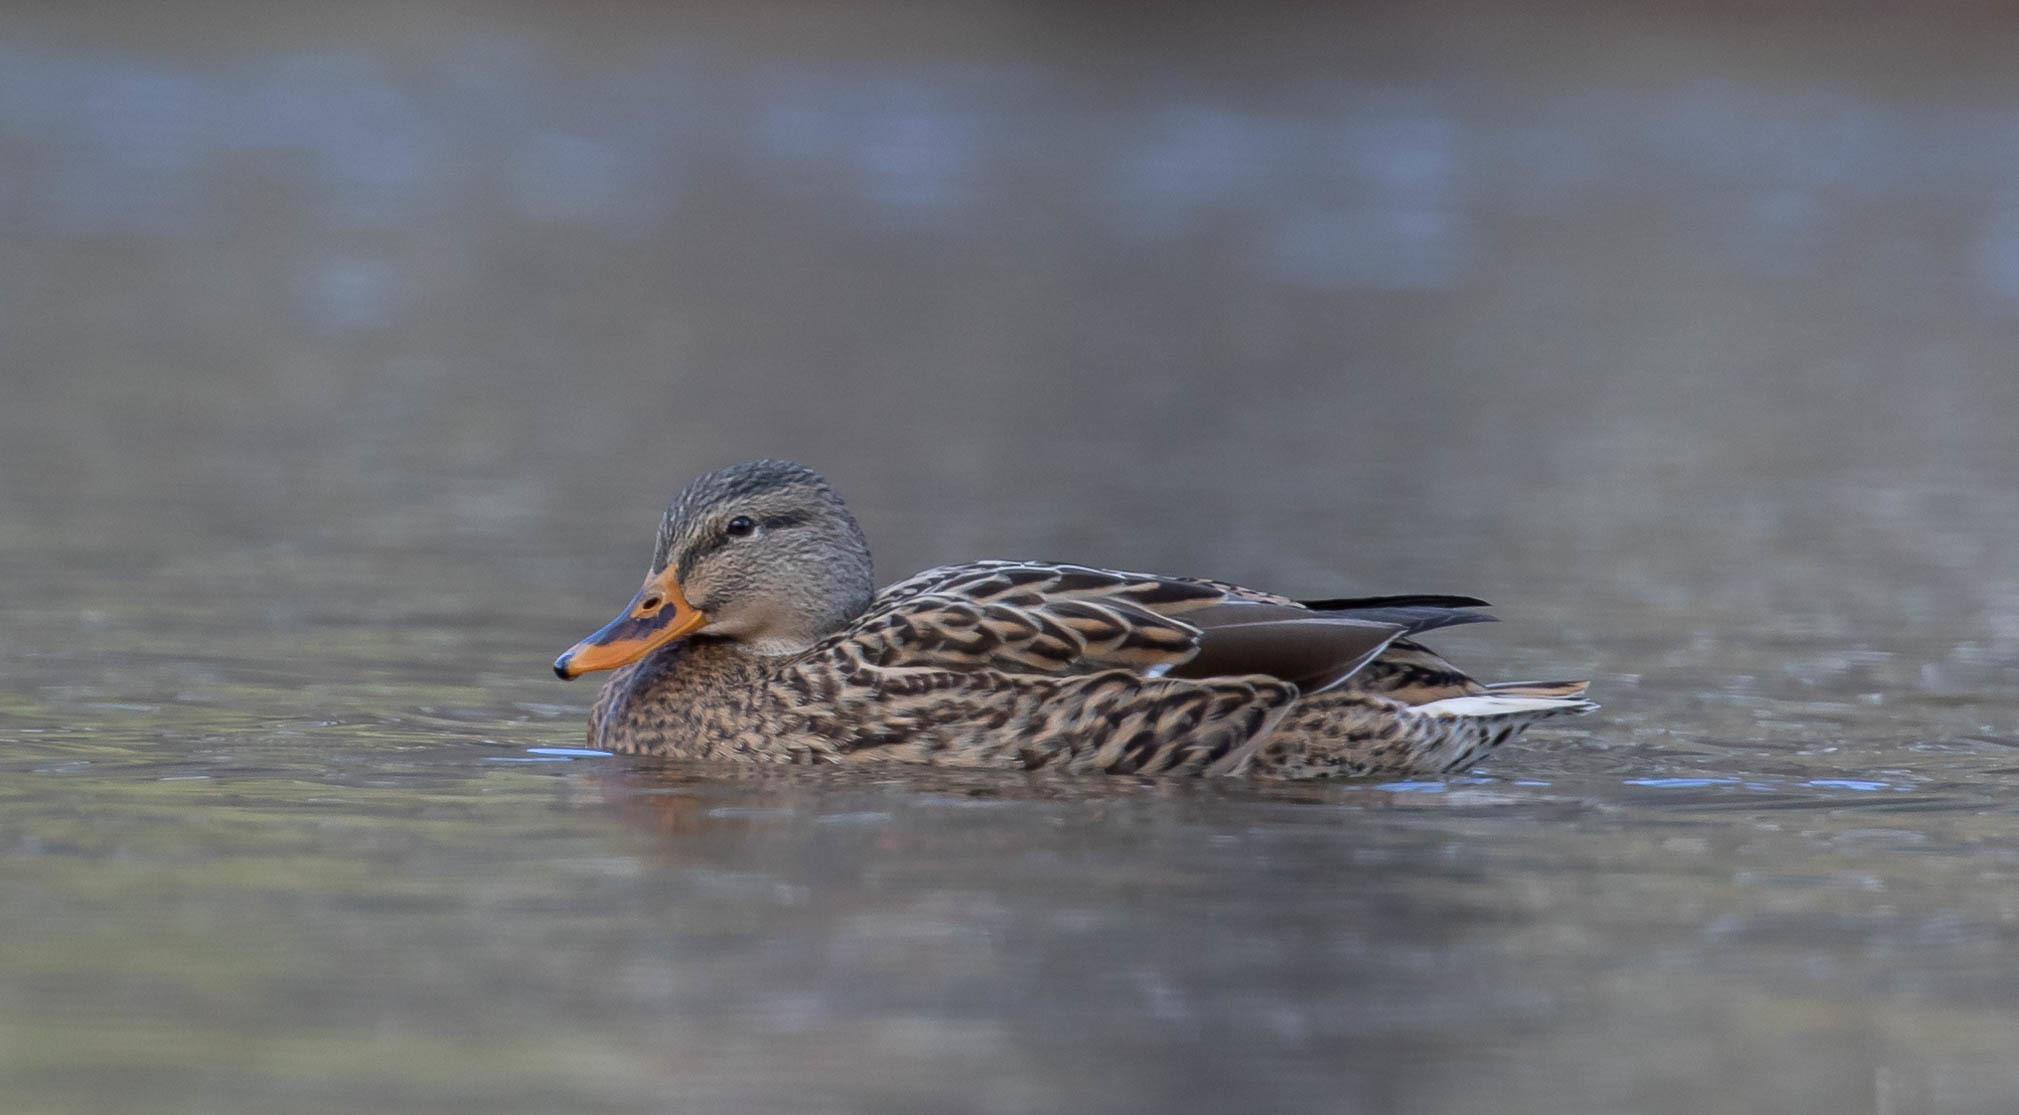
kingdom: Animalia
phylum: Chordata
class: Aves
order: Anseriformes
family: Anatidae
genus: Anas
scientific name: Anas platyrhynchos
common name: Mallard
